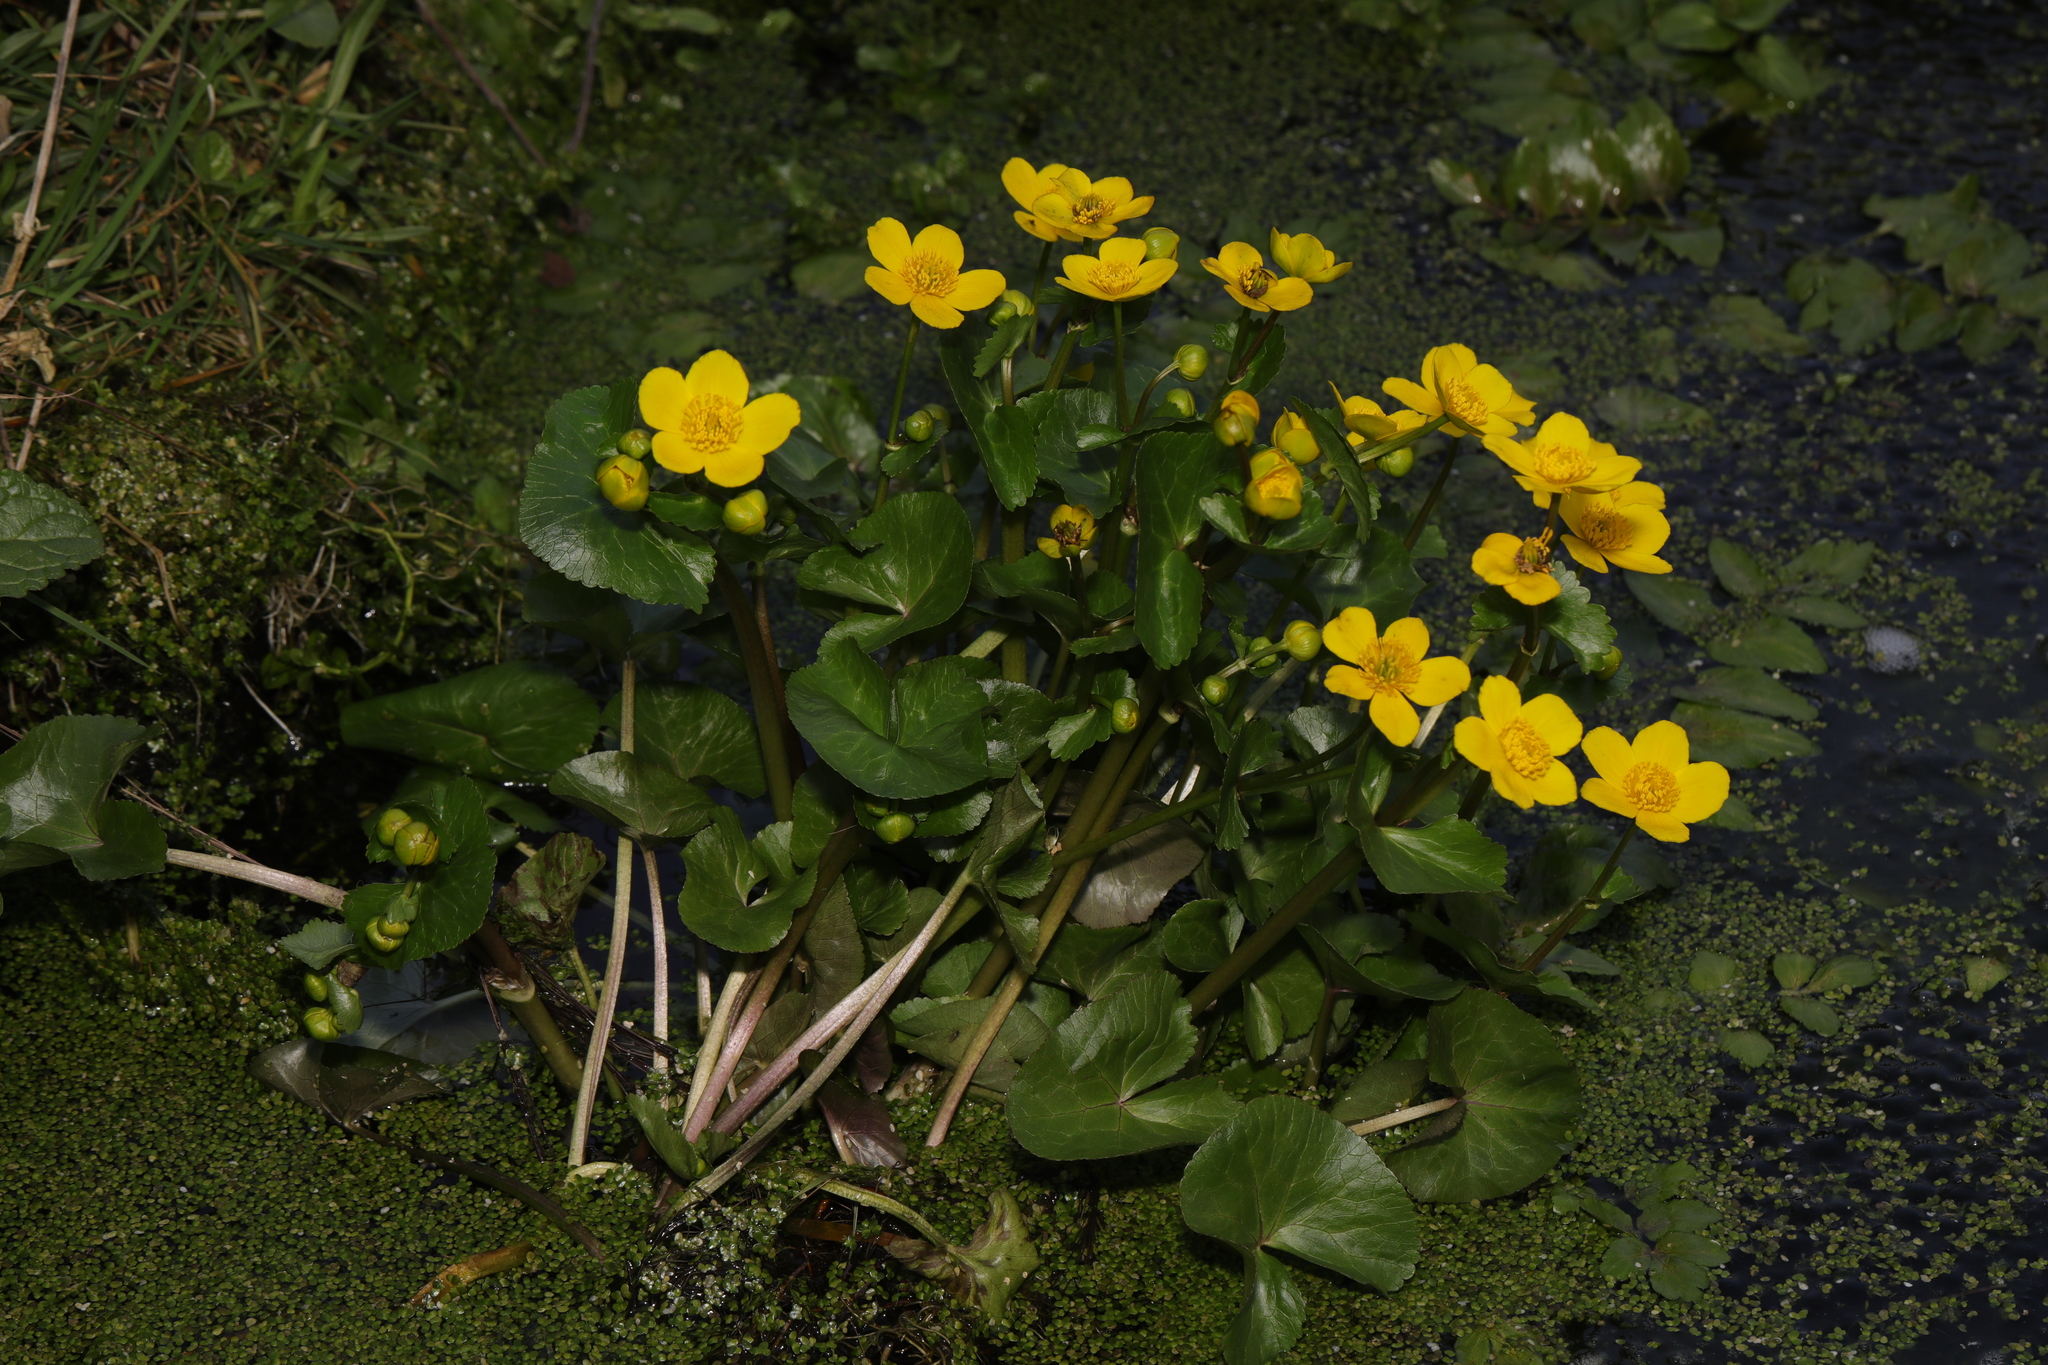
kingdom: Plantae
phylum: Tracheophyta
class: Magnoliopsida
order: Ranunculales
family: Ranunculaceae
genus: Caltha
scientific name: Caltha palustris
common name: Marsh marigold
